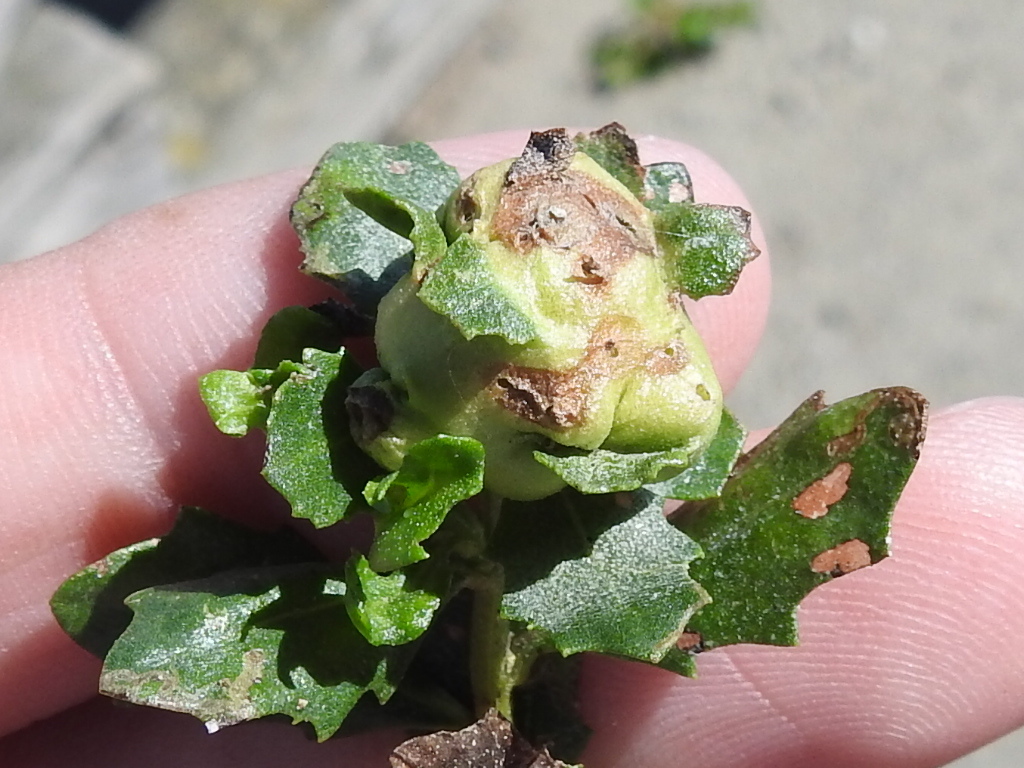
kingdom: Animalia
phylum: Arthropoda
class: Insecta
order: Diptera
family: Cecidomyiidae
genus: Rhopalomyia
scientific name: Rhopalomyia californica
